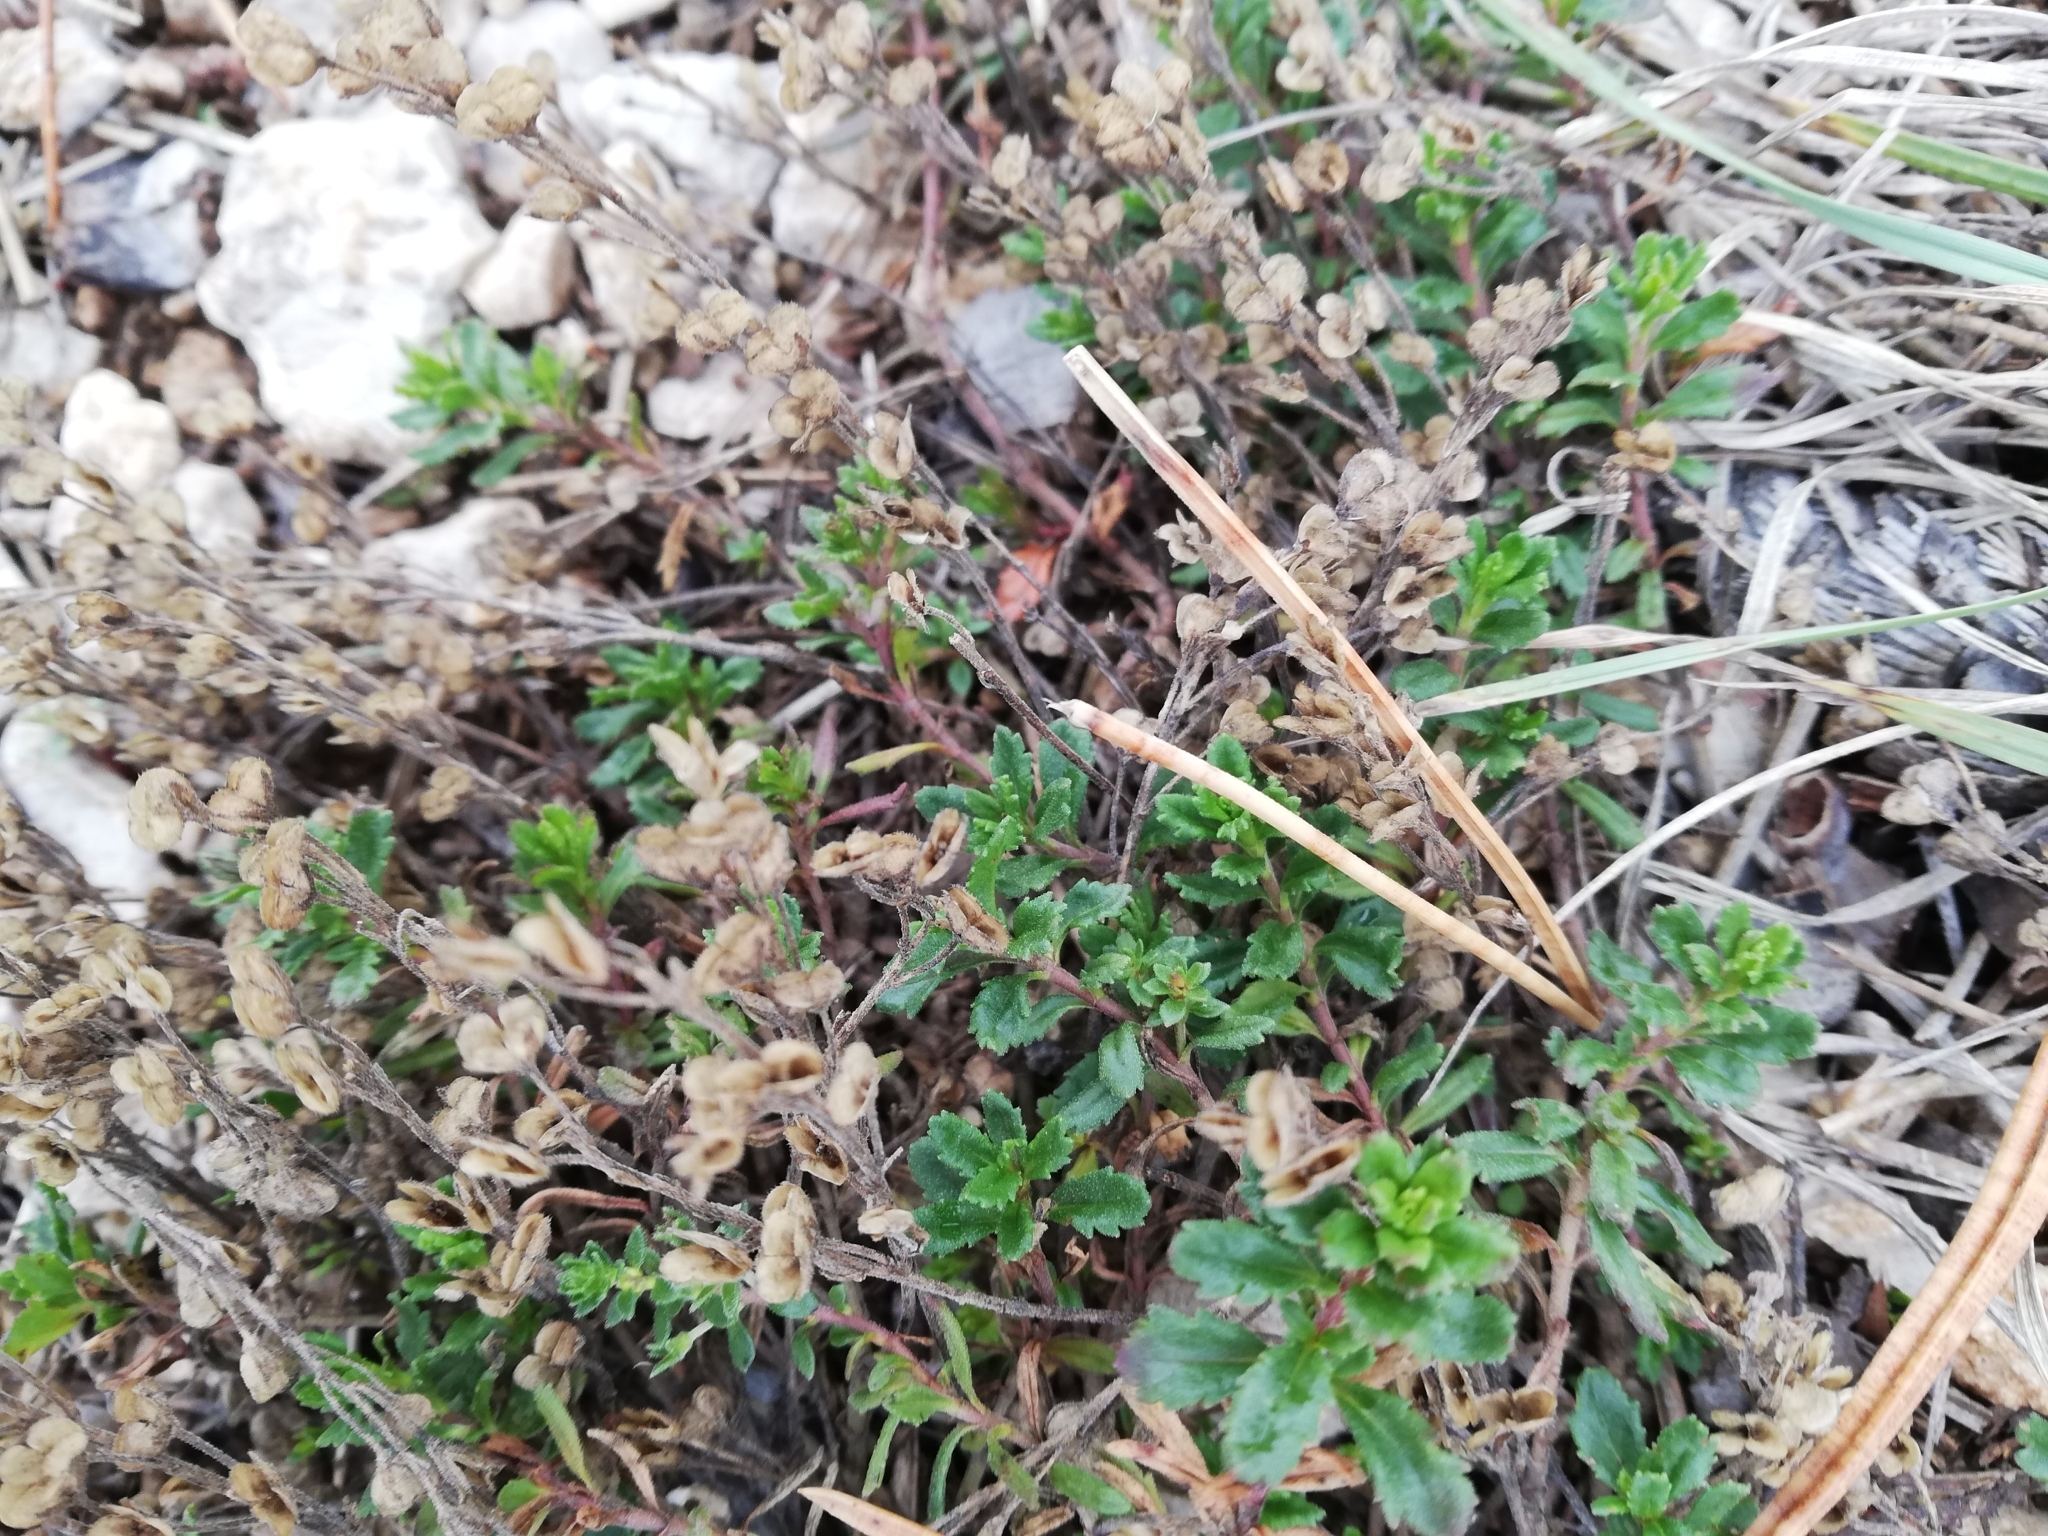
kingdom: Plantae
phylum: Tracheophyta
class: Magnoliopsida
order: Lamiales
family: Lamiaceae
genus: Teucrium
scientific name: Teucrium chamaedrys
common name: Wall germander
